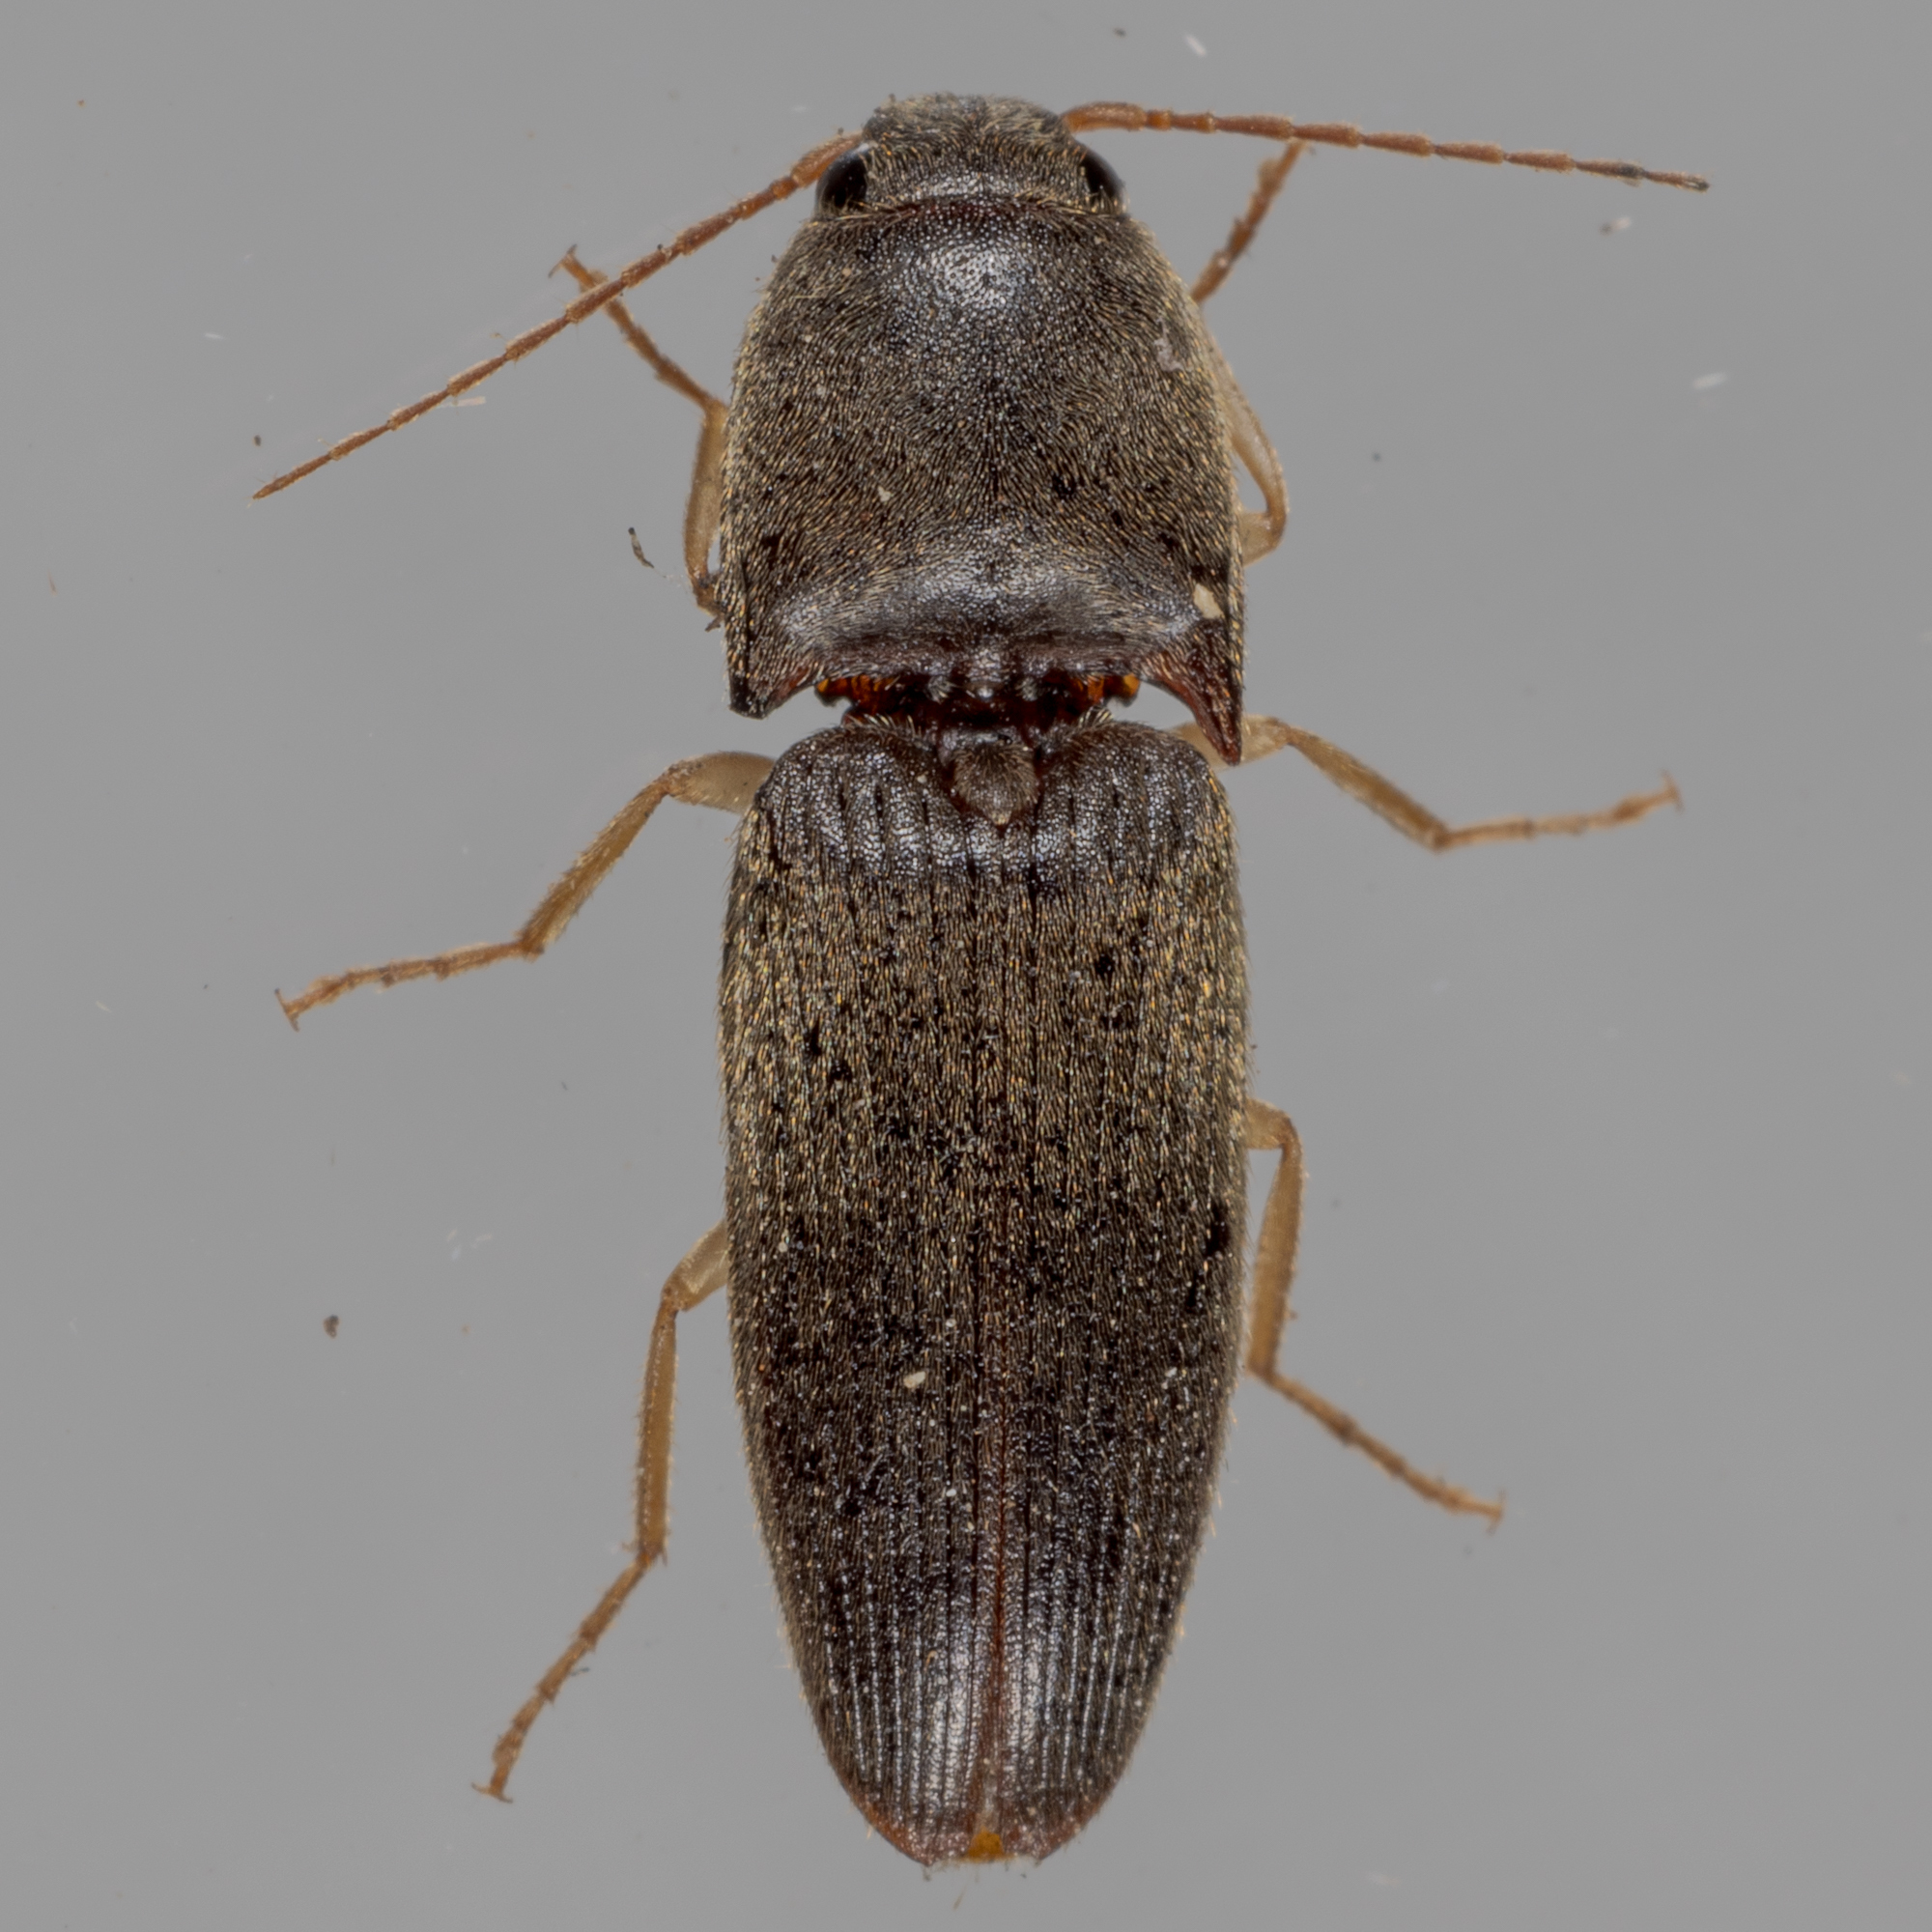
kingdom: Animalia
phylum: Arthropoda
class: Insecta
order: Coleoptera
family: Elateridae
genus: Conoderus
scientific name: Conoderus exsul
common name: Click beetle
